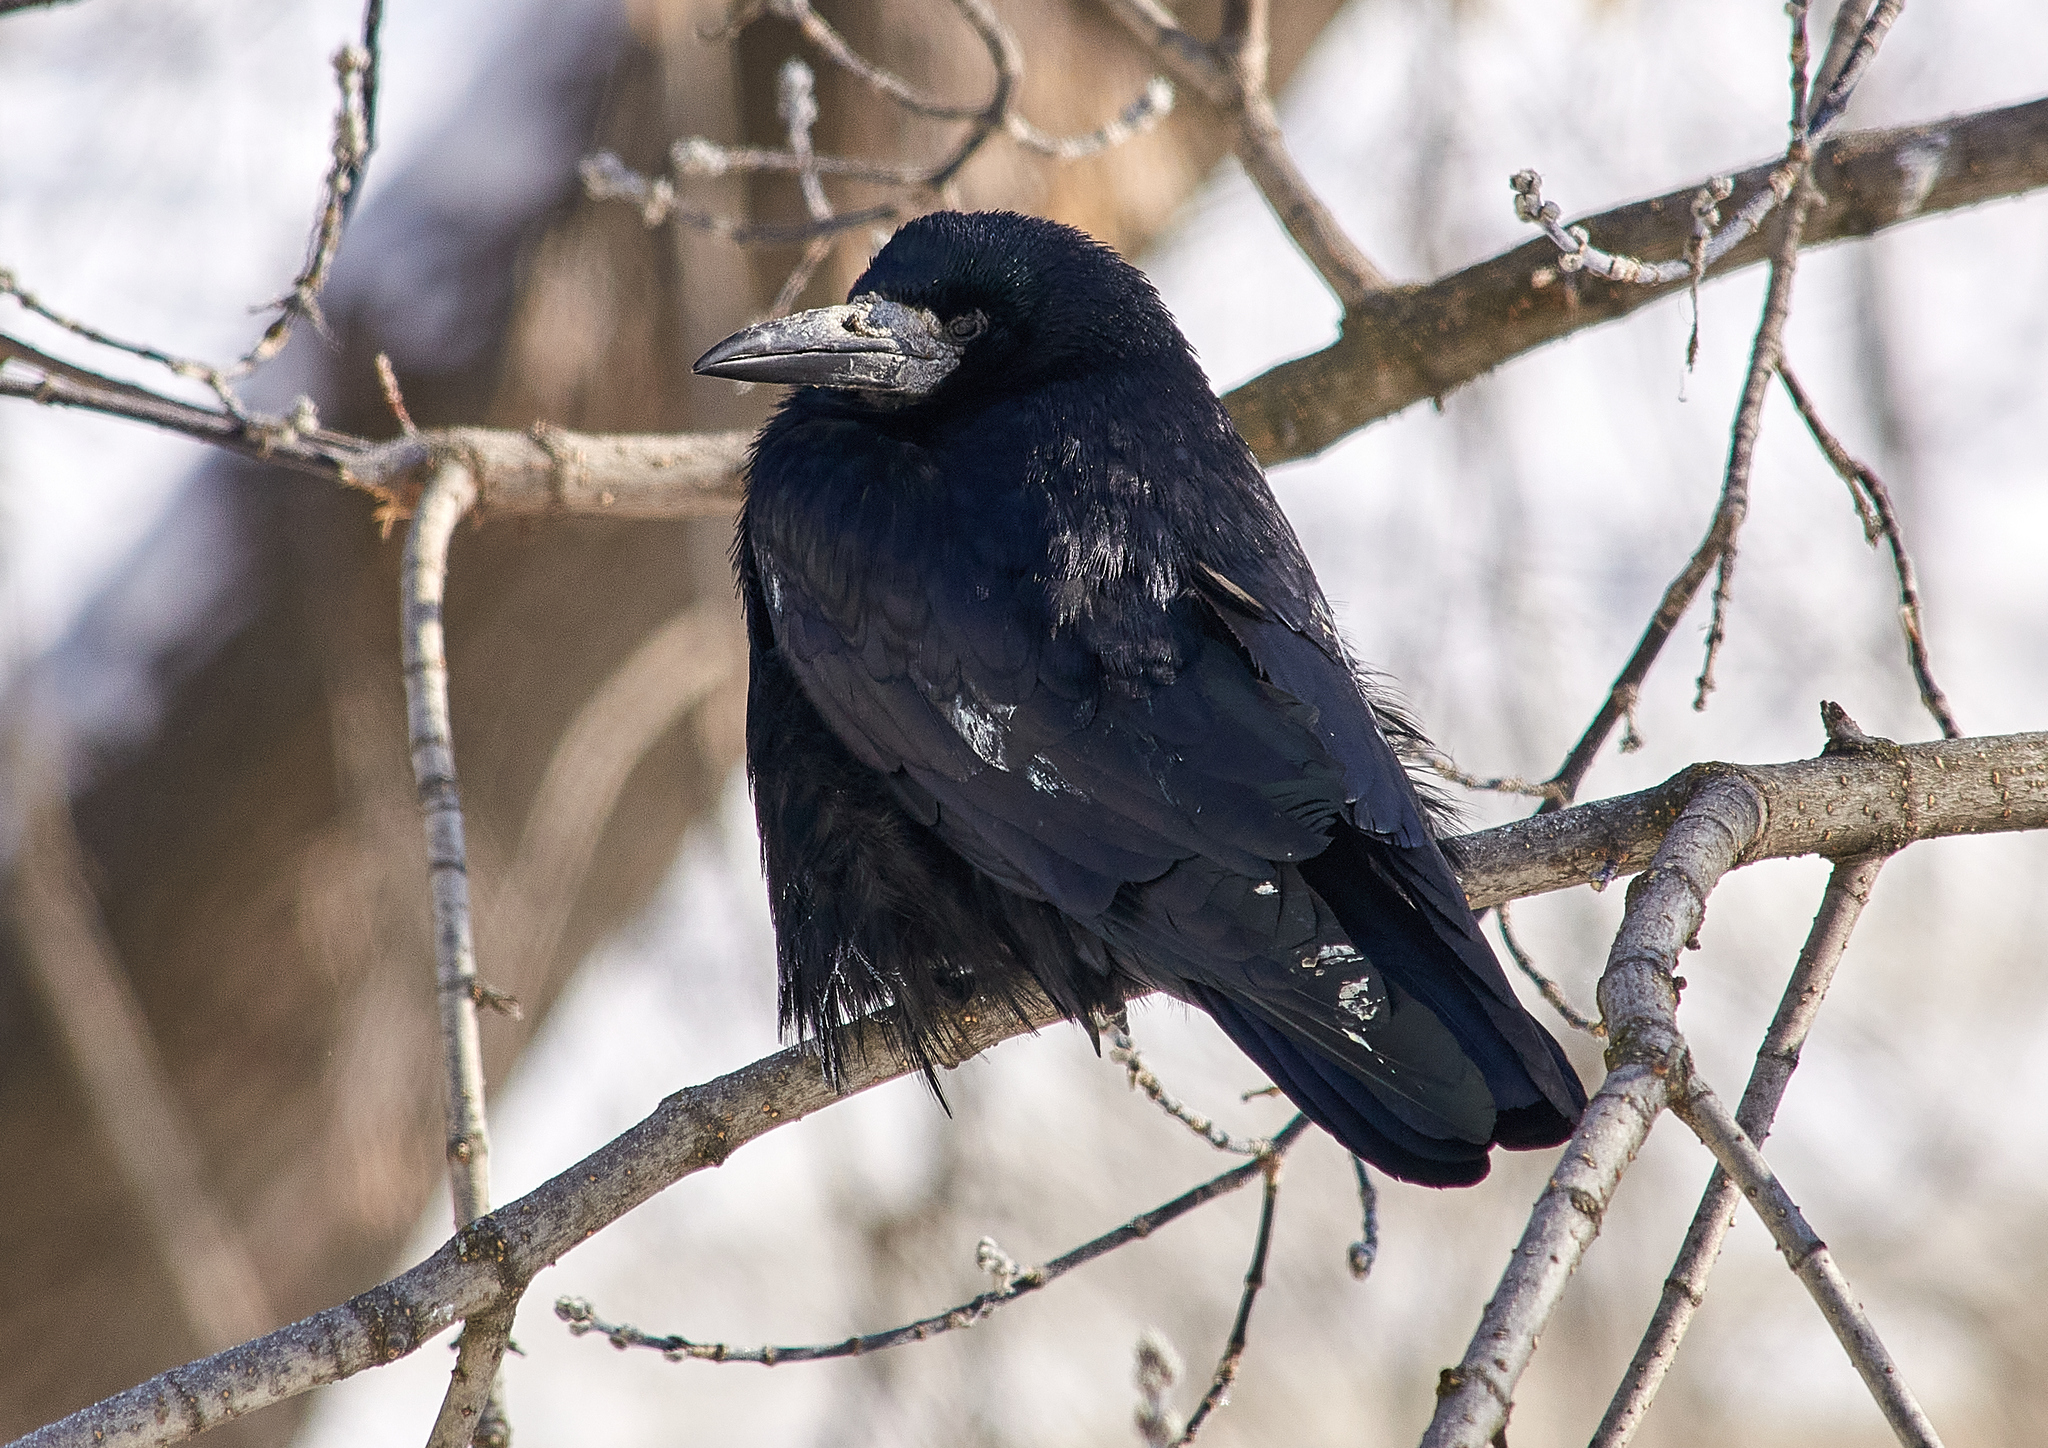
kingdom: Animalia
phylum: Chordata
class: Aves
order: Passeriformes
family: Corvidae
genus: Corvus
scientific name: Corvus frugilegus
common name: Rook
